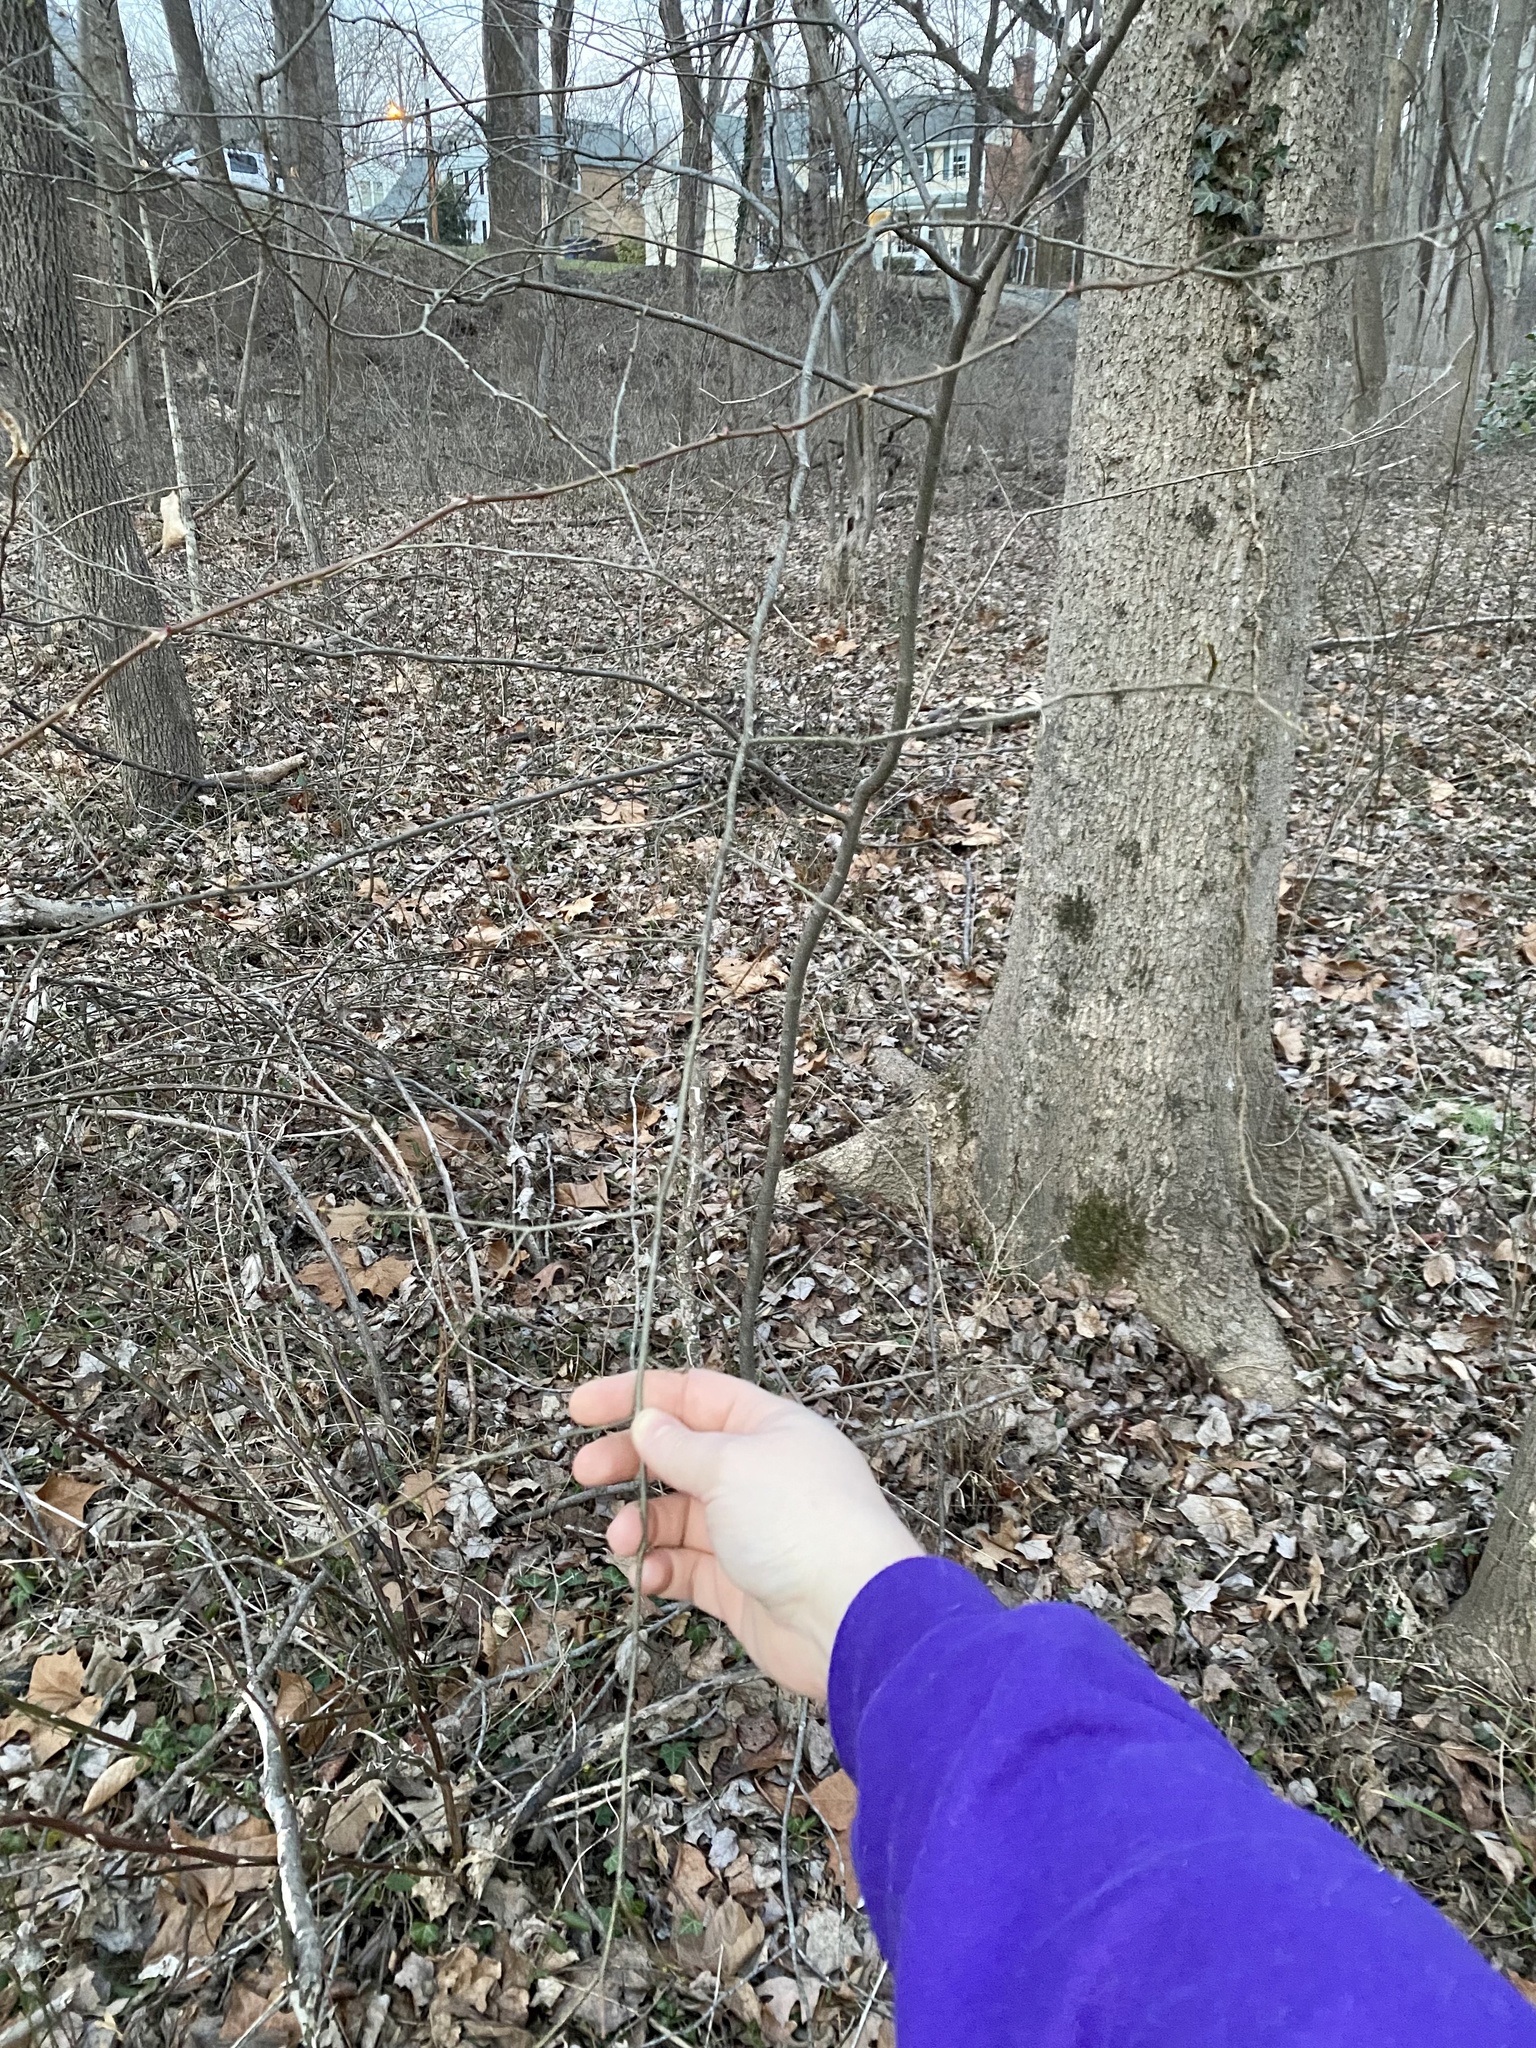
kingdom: Plantae
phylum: Tracheophyta
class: Magnoliopsida
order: Laurales
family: Lauraceae
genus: Lindera
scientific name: Lindera benzoin
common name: Spicebush
